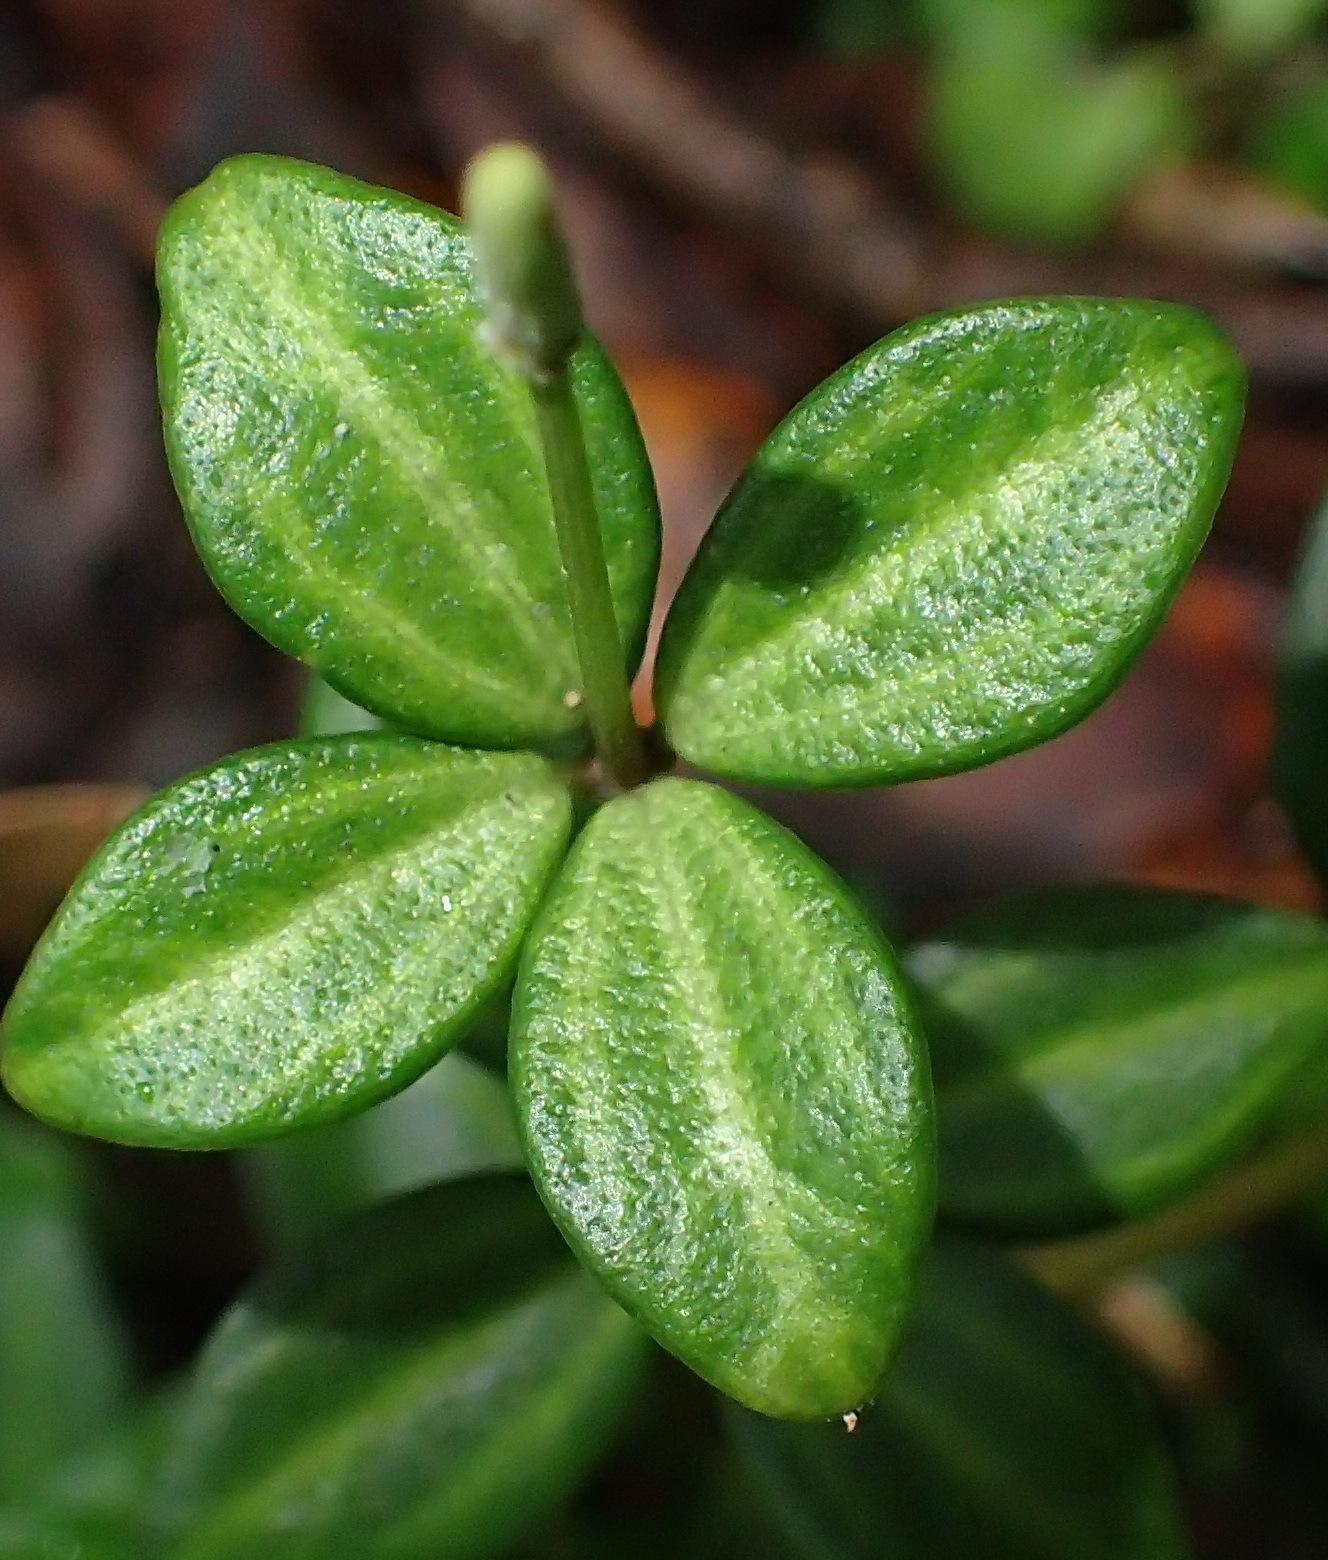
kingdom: Plantae
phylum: Tracheophyta
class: Magnoliopsida
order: Piperales
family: Piperaceae
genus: Peperomia
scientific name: Peperomia tetraphylla
